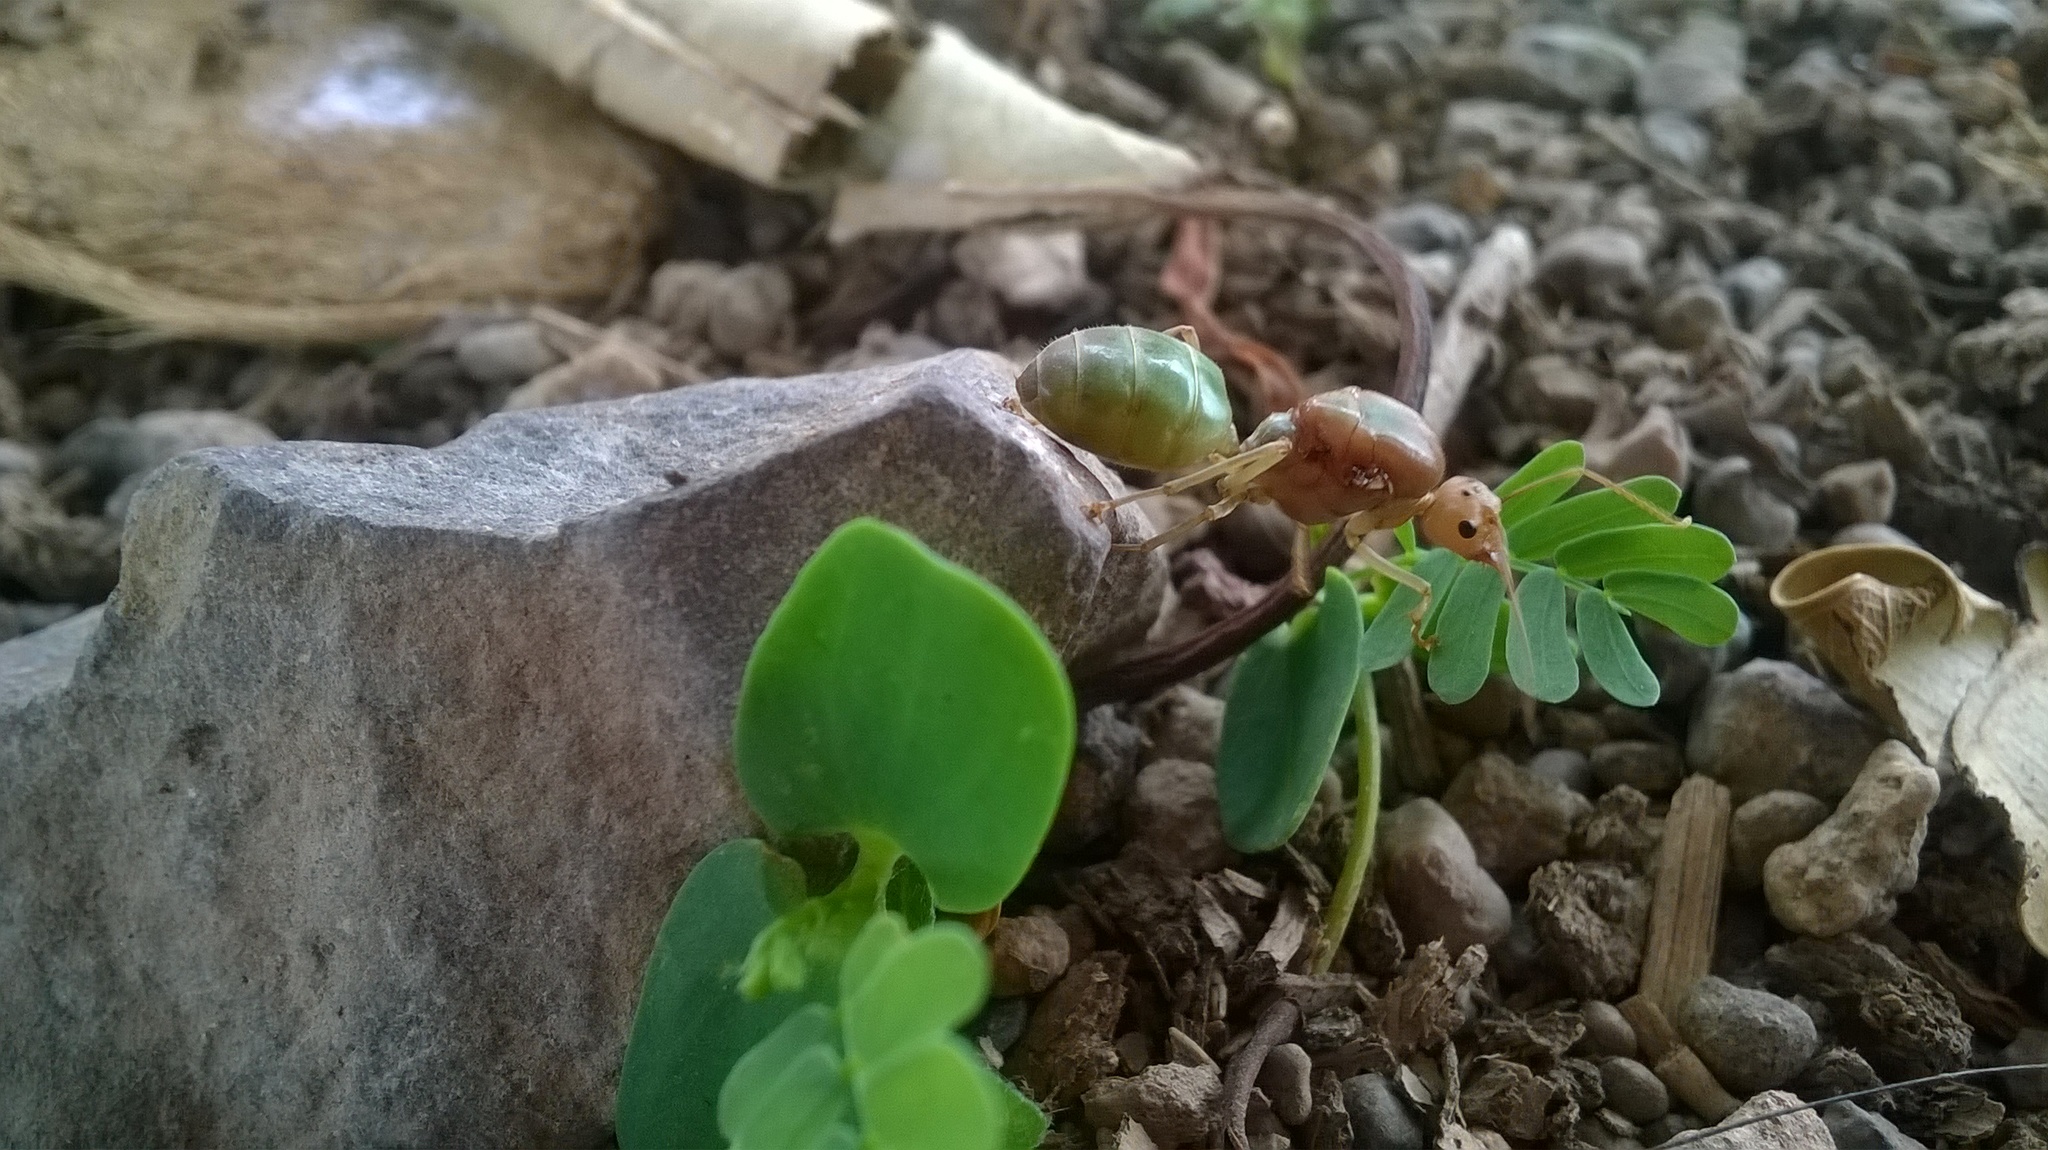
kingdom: Animalia
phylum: Arthropoda
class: Insecta
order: Hymenoptera
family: Formicidae
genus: Oecophylla
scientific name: Oecophylla smaragdina
